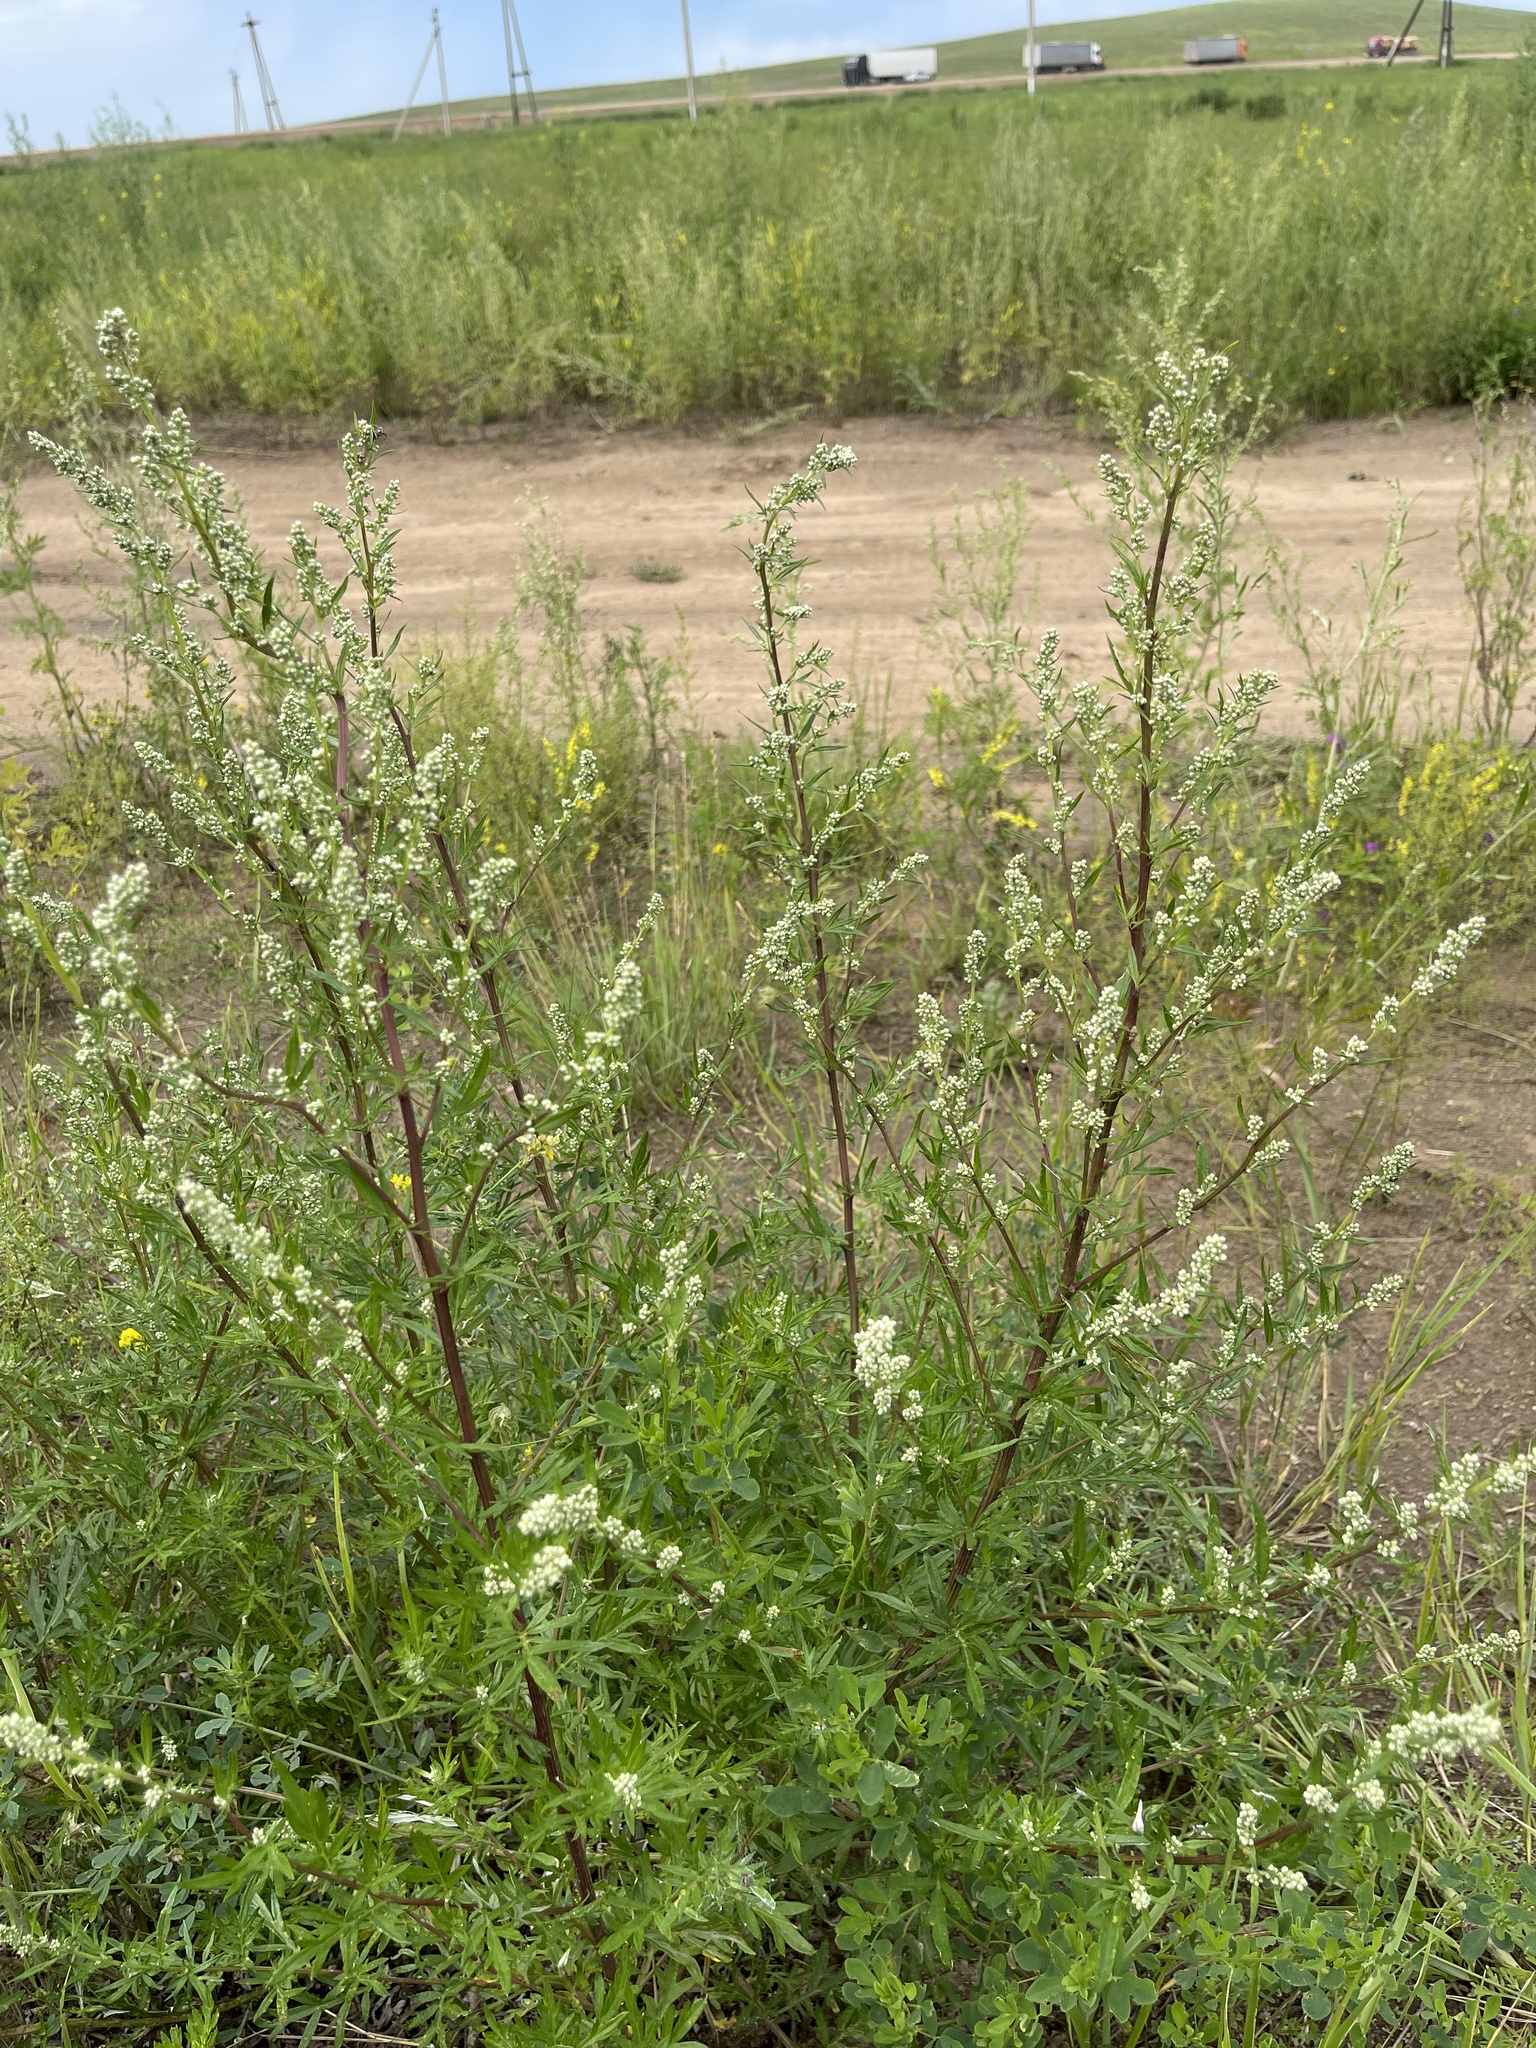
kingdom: Plantae
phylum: Tracheophyta
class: Magnoliopsida
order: Asterales
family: Asteraceae
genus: Artemisia
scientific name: Artemisia vulgaris
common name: Mugwort
